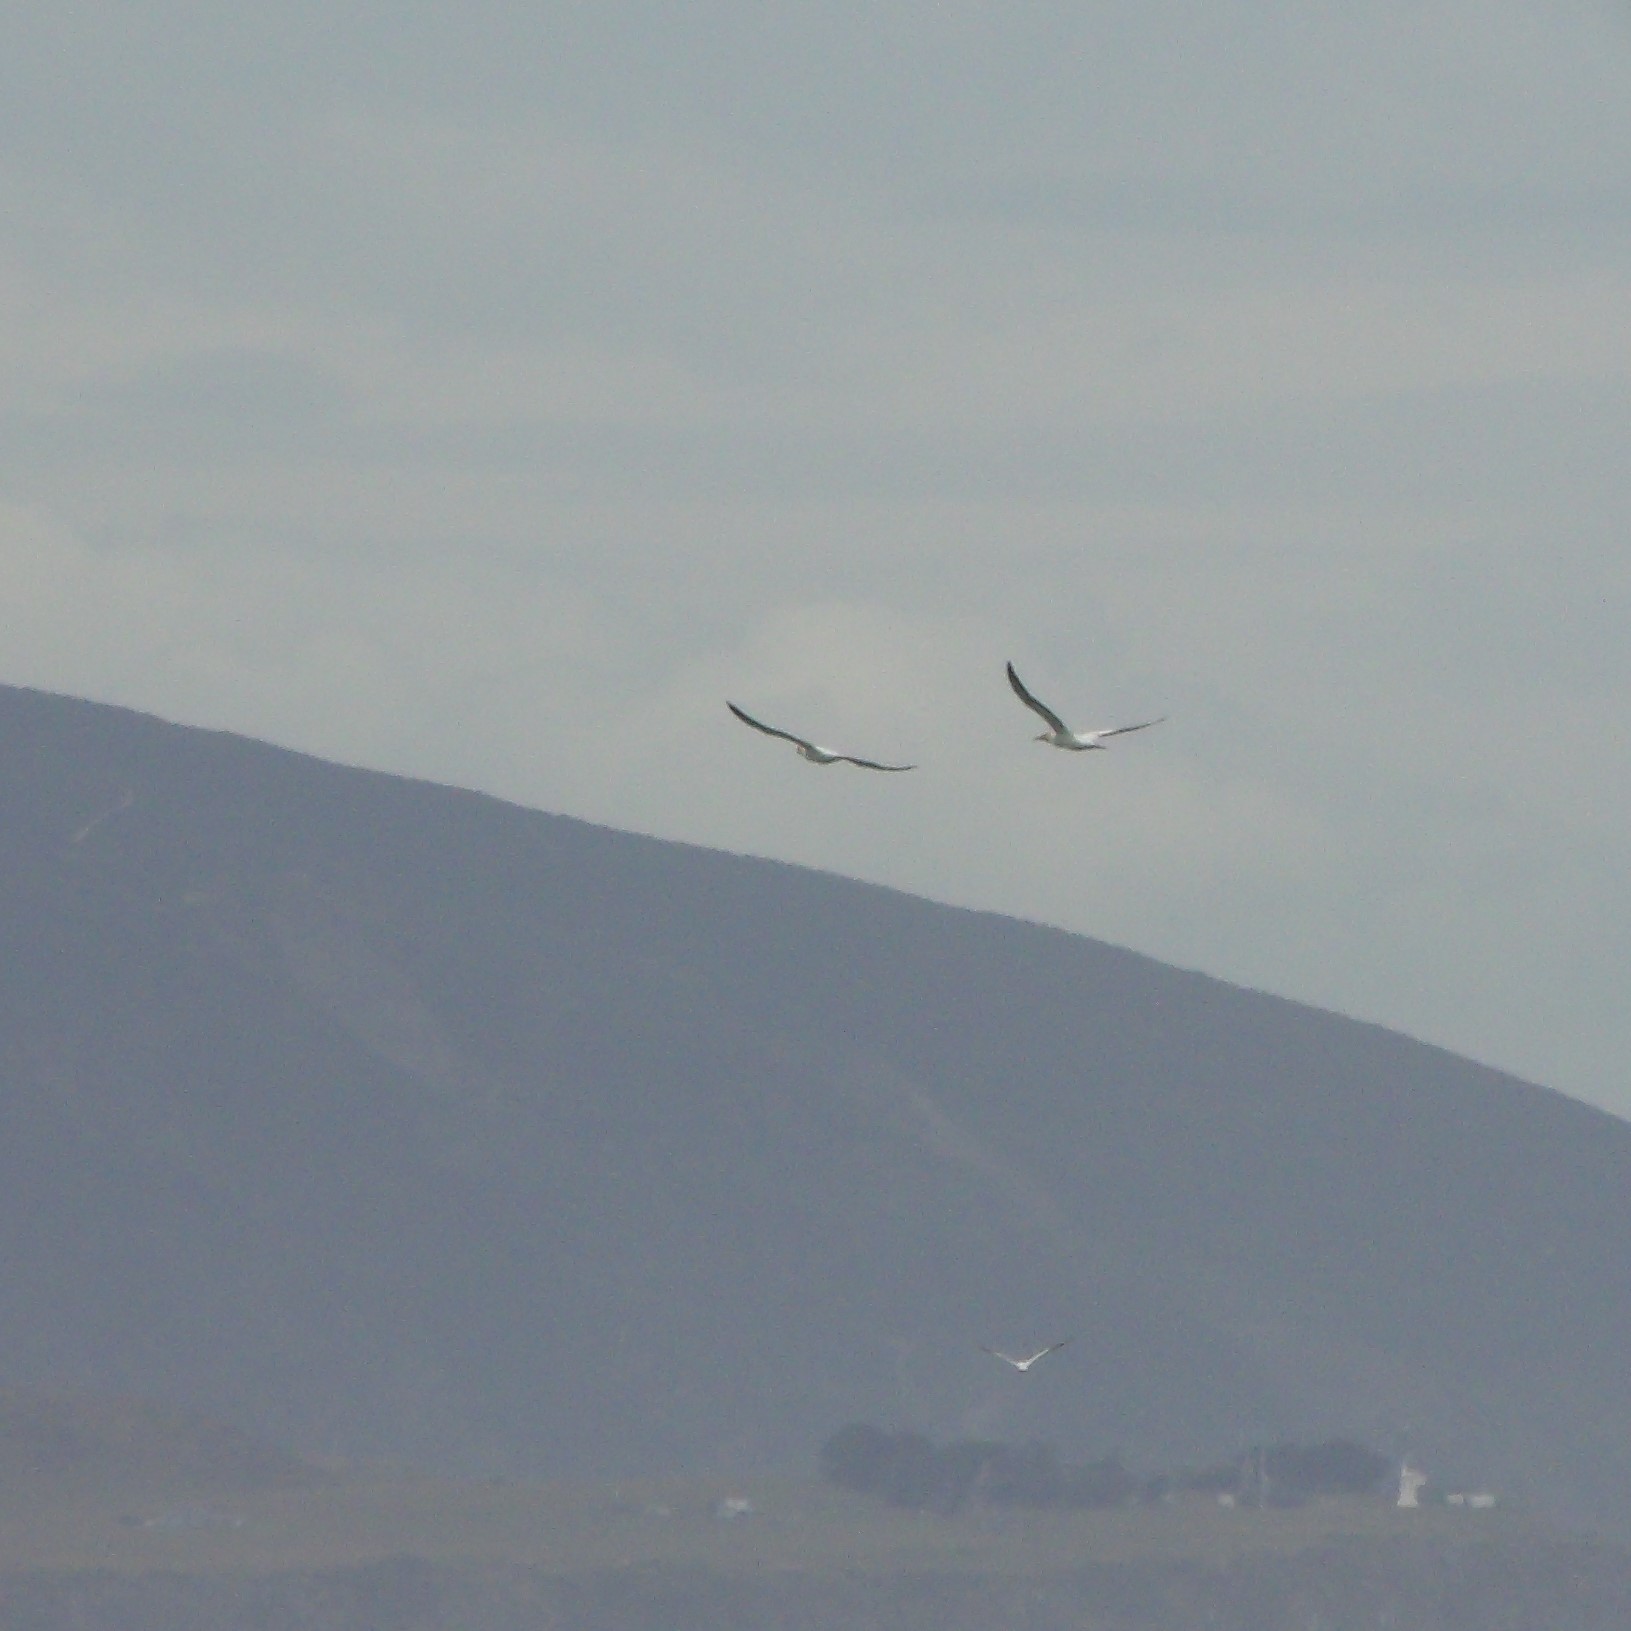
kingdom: Animalia
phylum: Chordata
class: Aves
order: Suliformes
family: Sulidae
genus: Morus
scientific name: Morus serrator
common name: Australasian gannet
